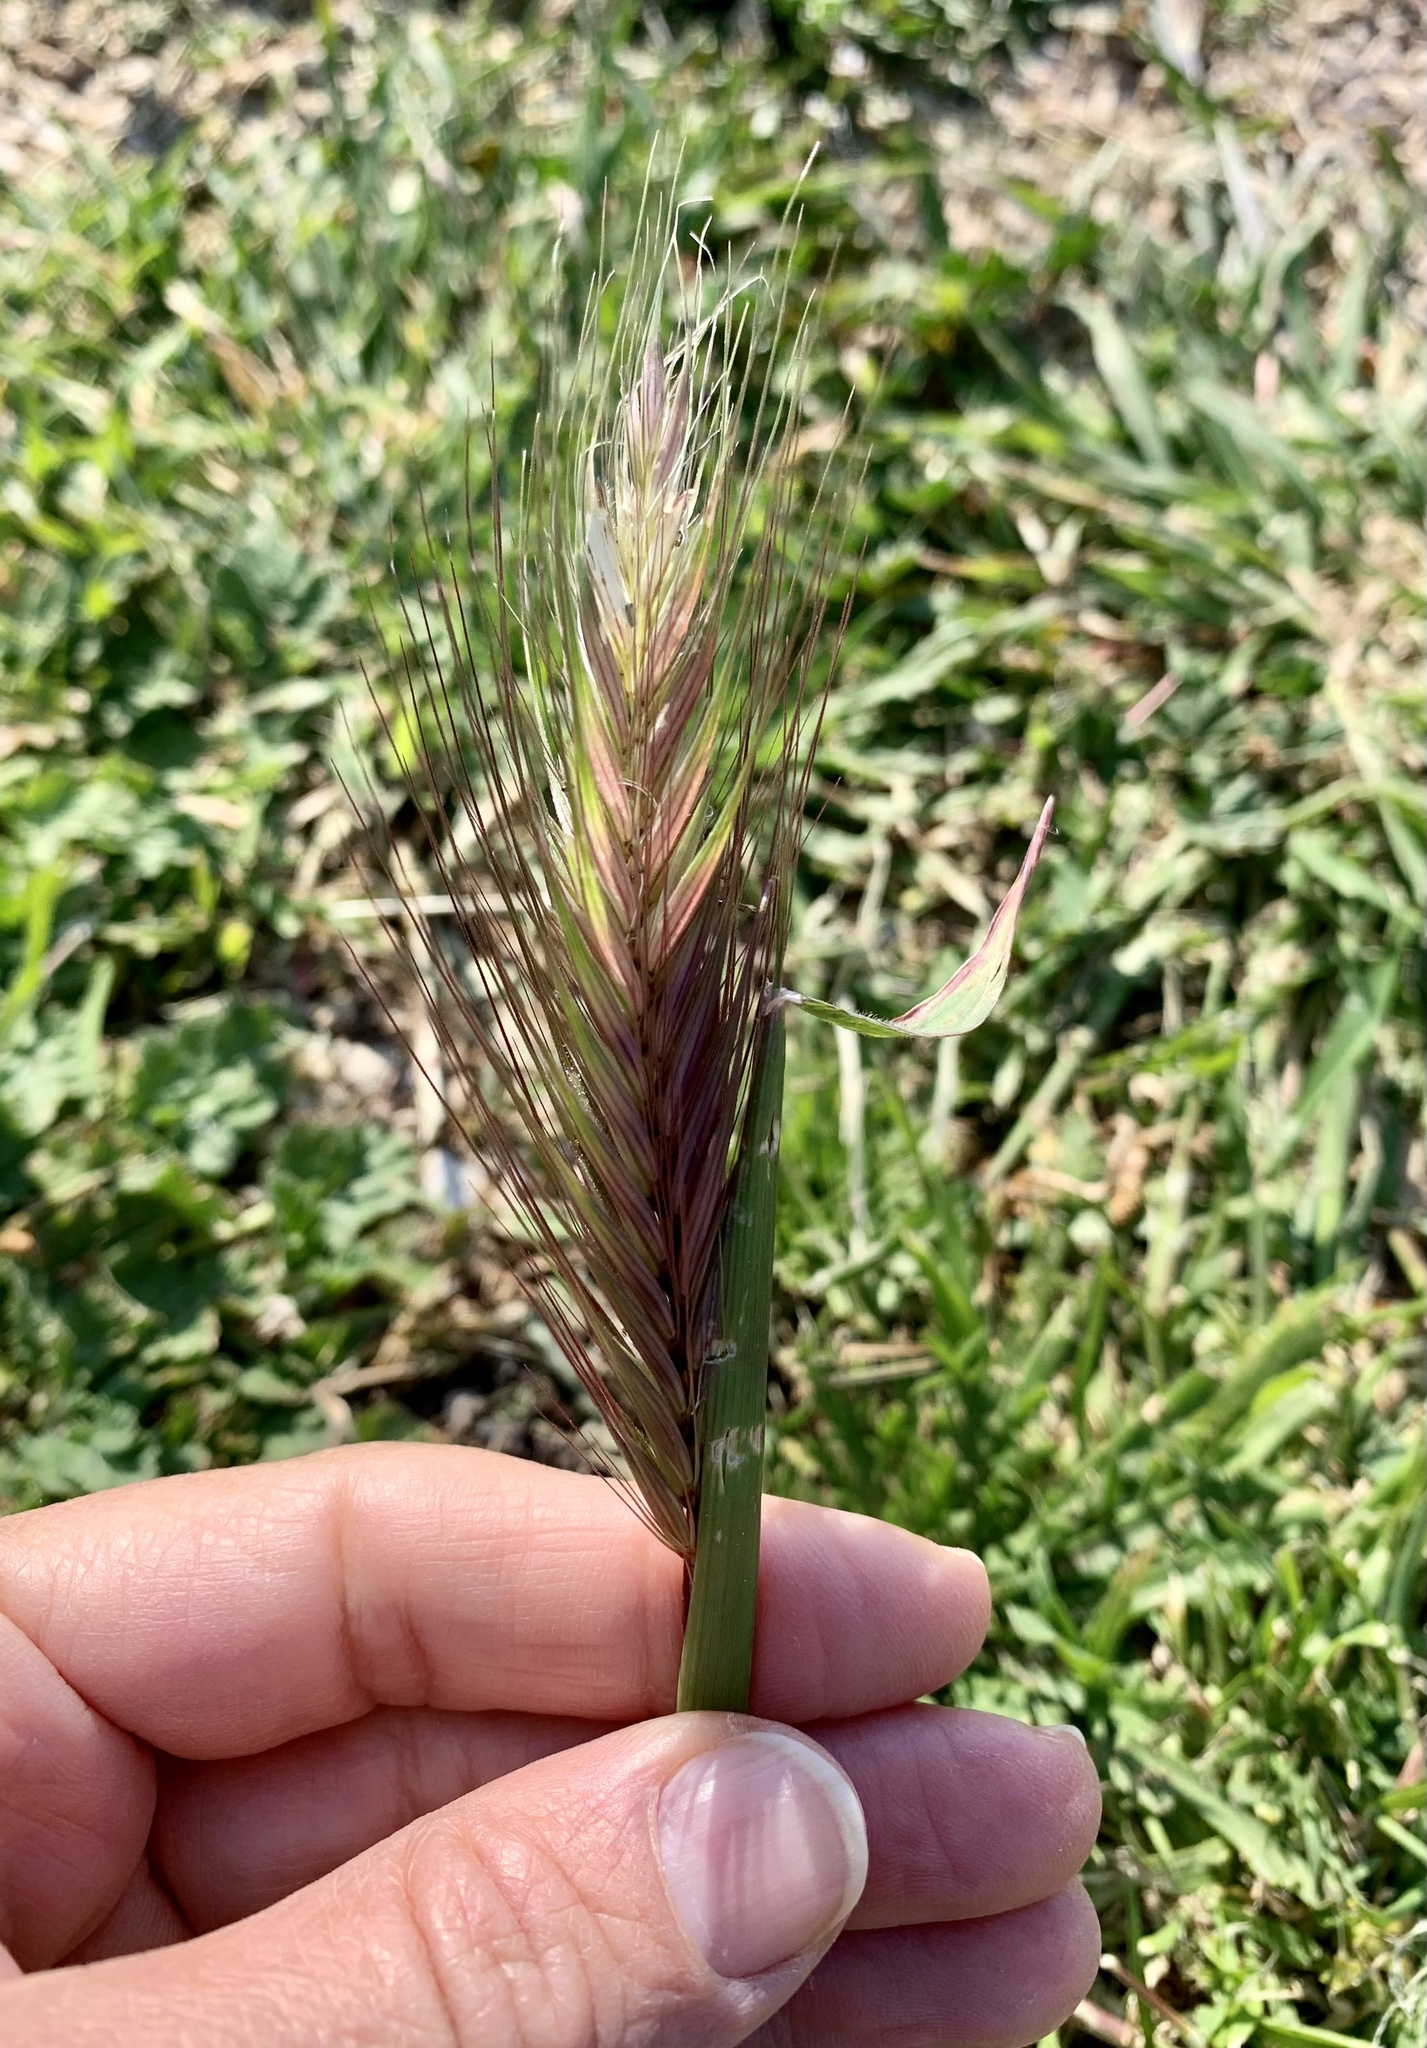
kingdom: Plantae
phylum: Tracheophyta
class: Liliopsida
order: Poales
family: Poaceae
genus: Hordeum
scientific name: Hordeum murinum
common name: Wall barley
